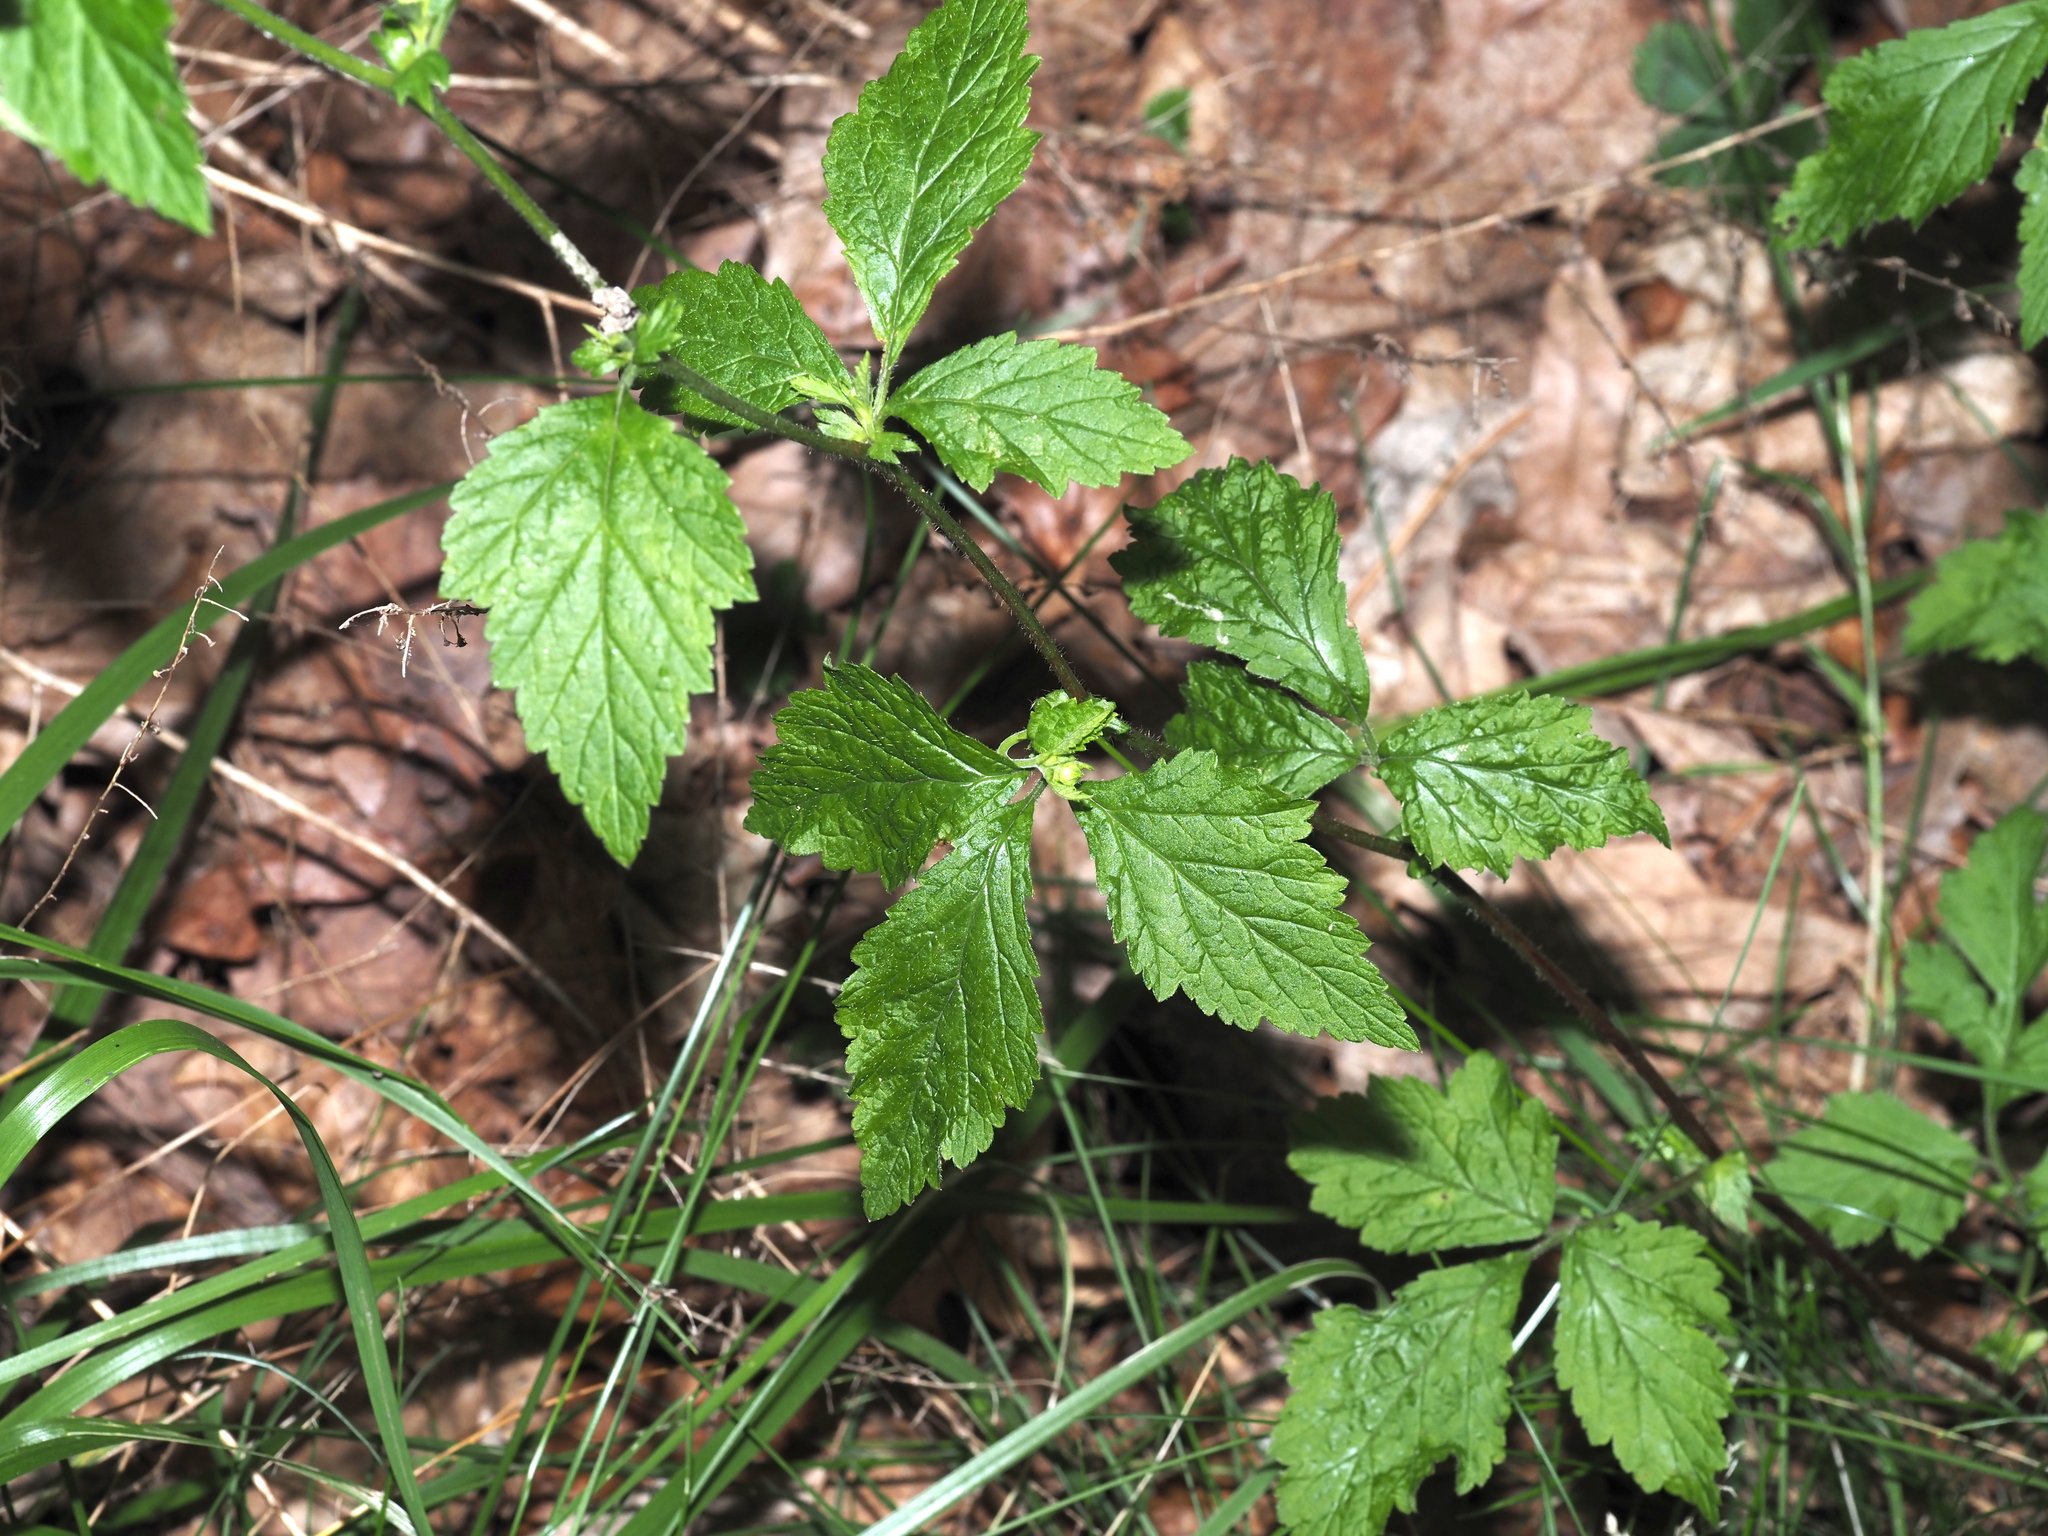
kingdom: Plantae
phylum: Tracheophyta
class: Magnoliopsida
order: Rosales
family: Rosaceae
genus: Geum
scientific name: Geum canadense
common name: White avens
